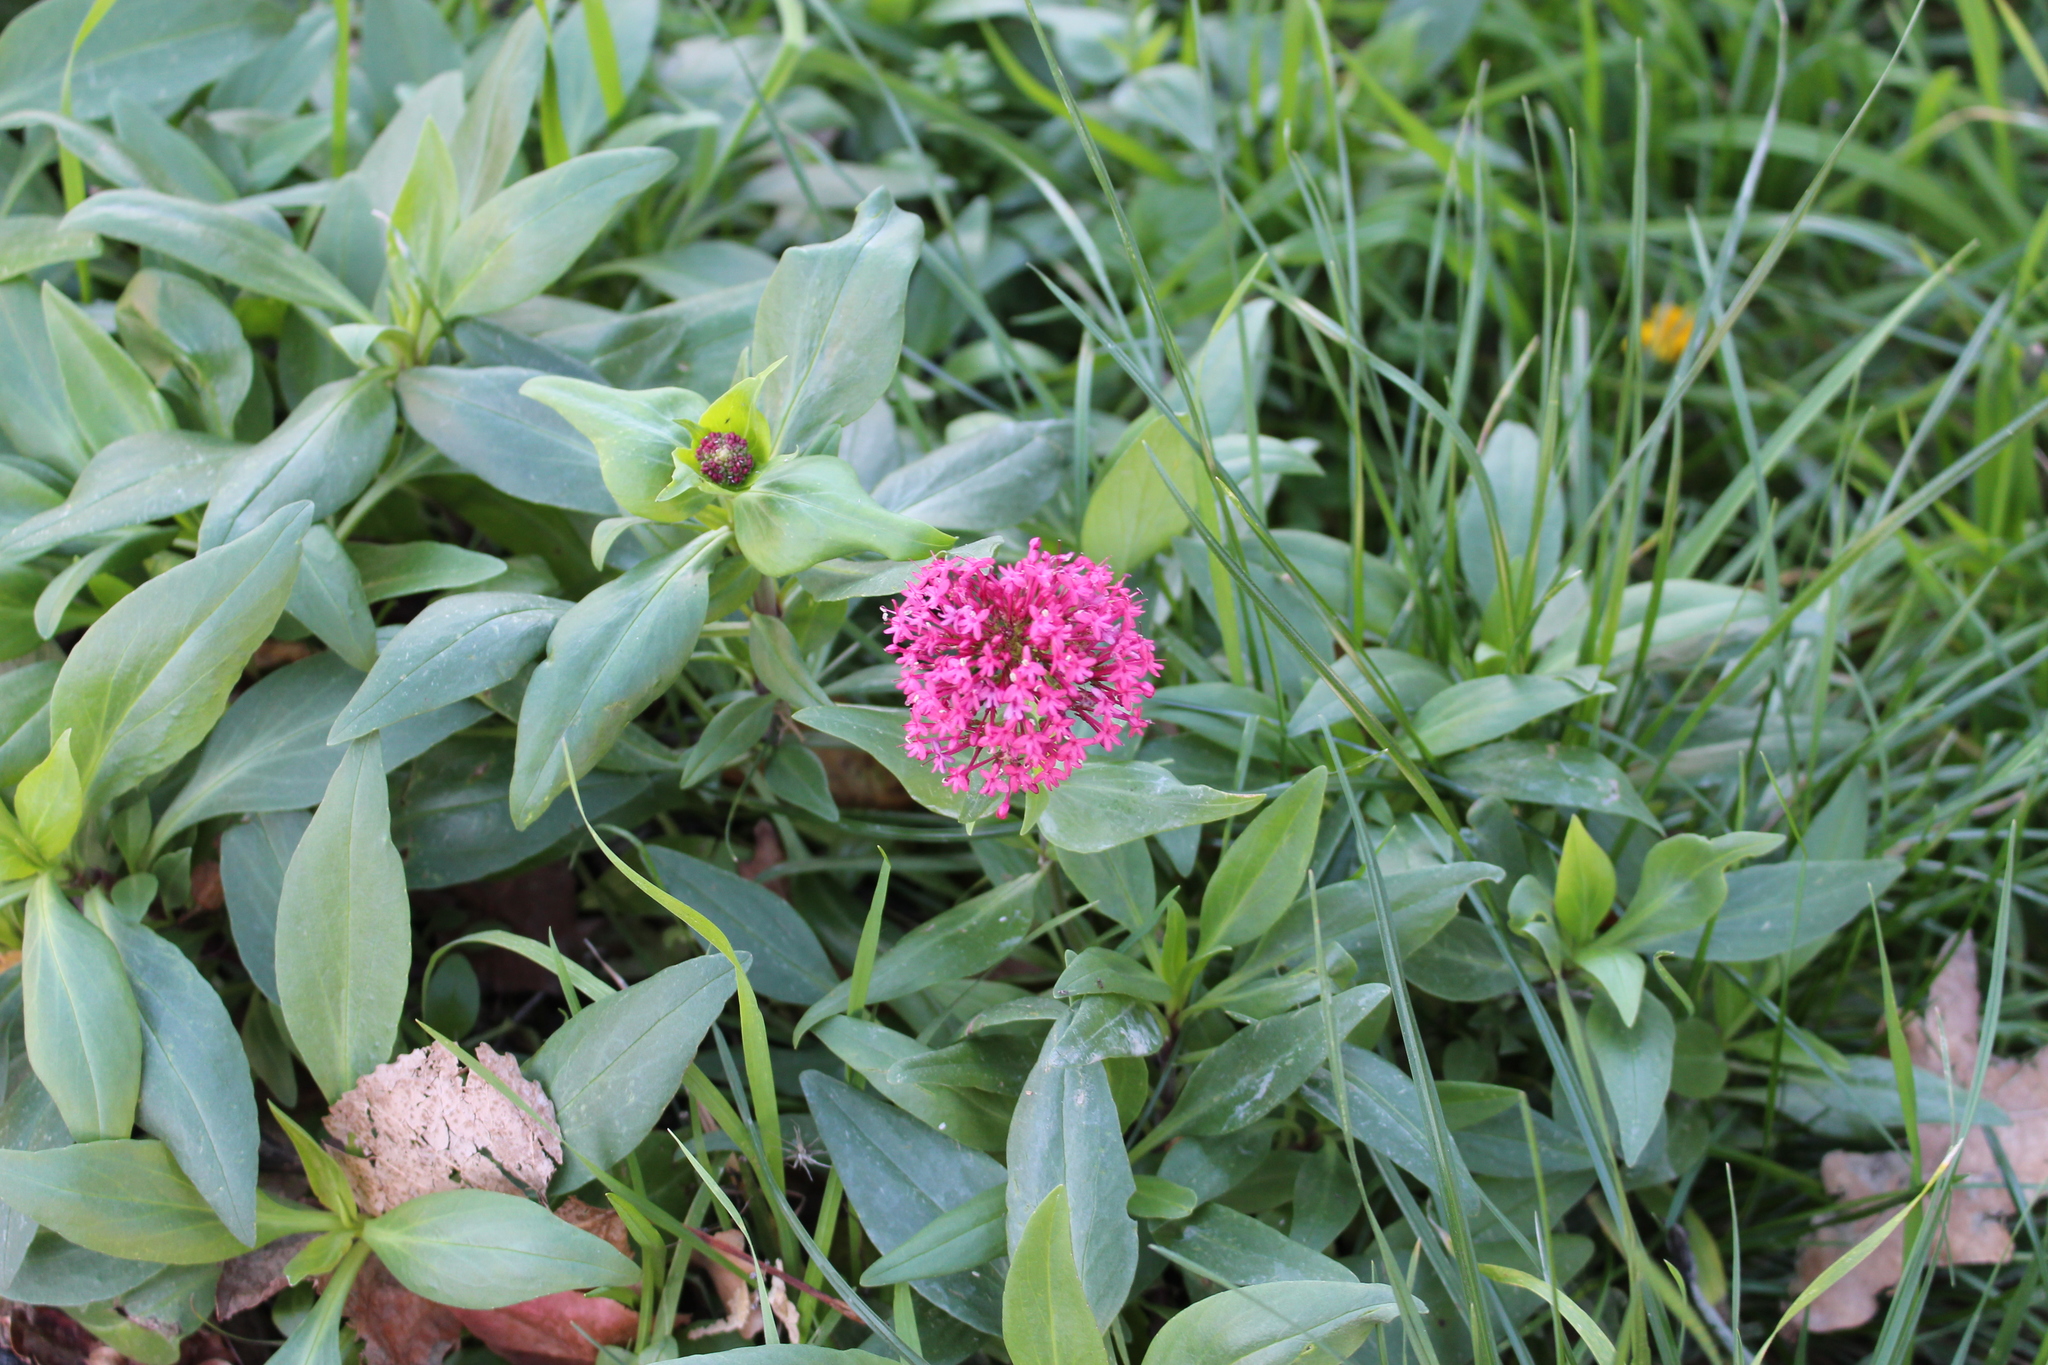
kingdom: Plantae
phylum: Tracheophyta
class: Magnoliopsida
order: Dipsacales
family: Caprifoliaceae
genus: Centranthus
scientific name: Centranthus ruber
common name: Red valerian
